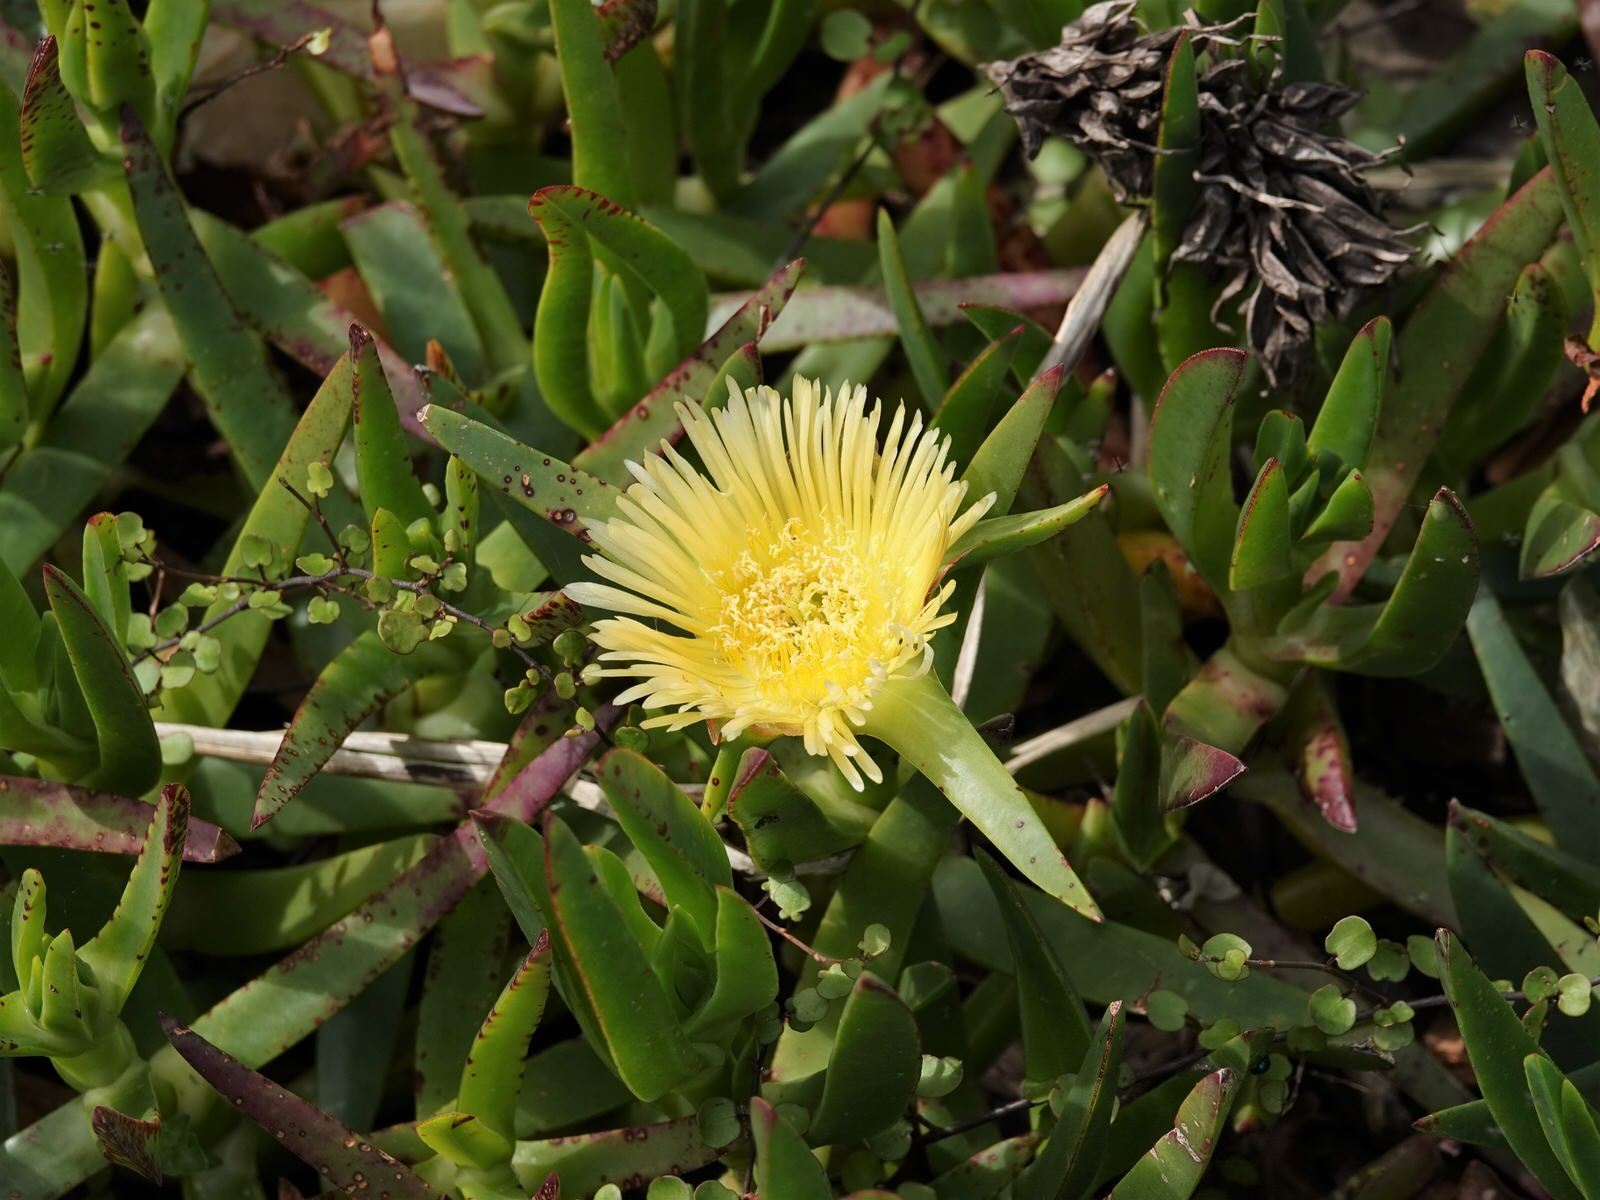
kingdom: Plantae
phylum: Tracheophyta
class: Magnoliopsida
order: Caryophyllales
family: Aizoaceae
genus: Carpobrotus
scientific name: Carpobrotus edulis
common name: Hottentot-fig
